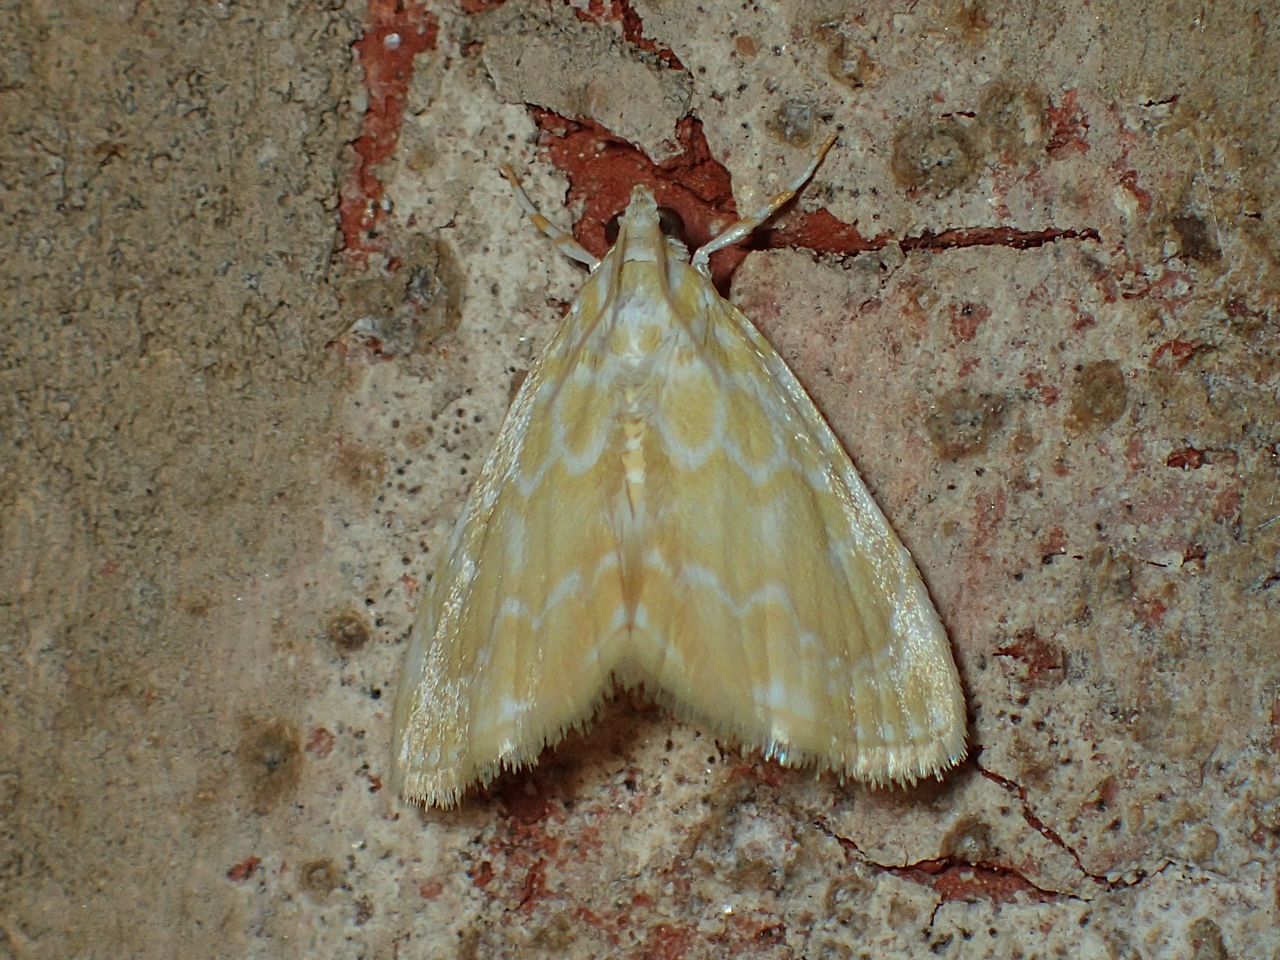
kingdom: Animalia
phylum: Arthropoda
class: Insecta
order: Lepidoptera
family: Crambidae
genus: Glaphyria
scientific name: Glaphyria glaphyralis
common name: Common glaphyria moth
